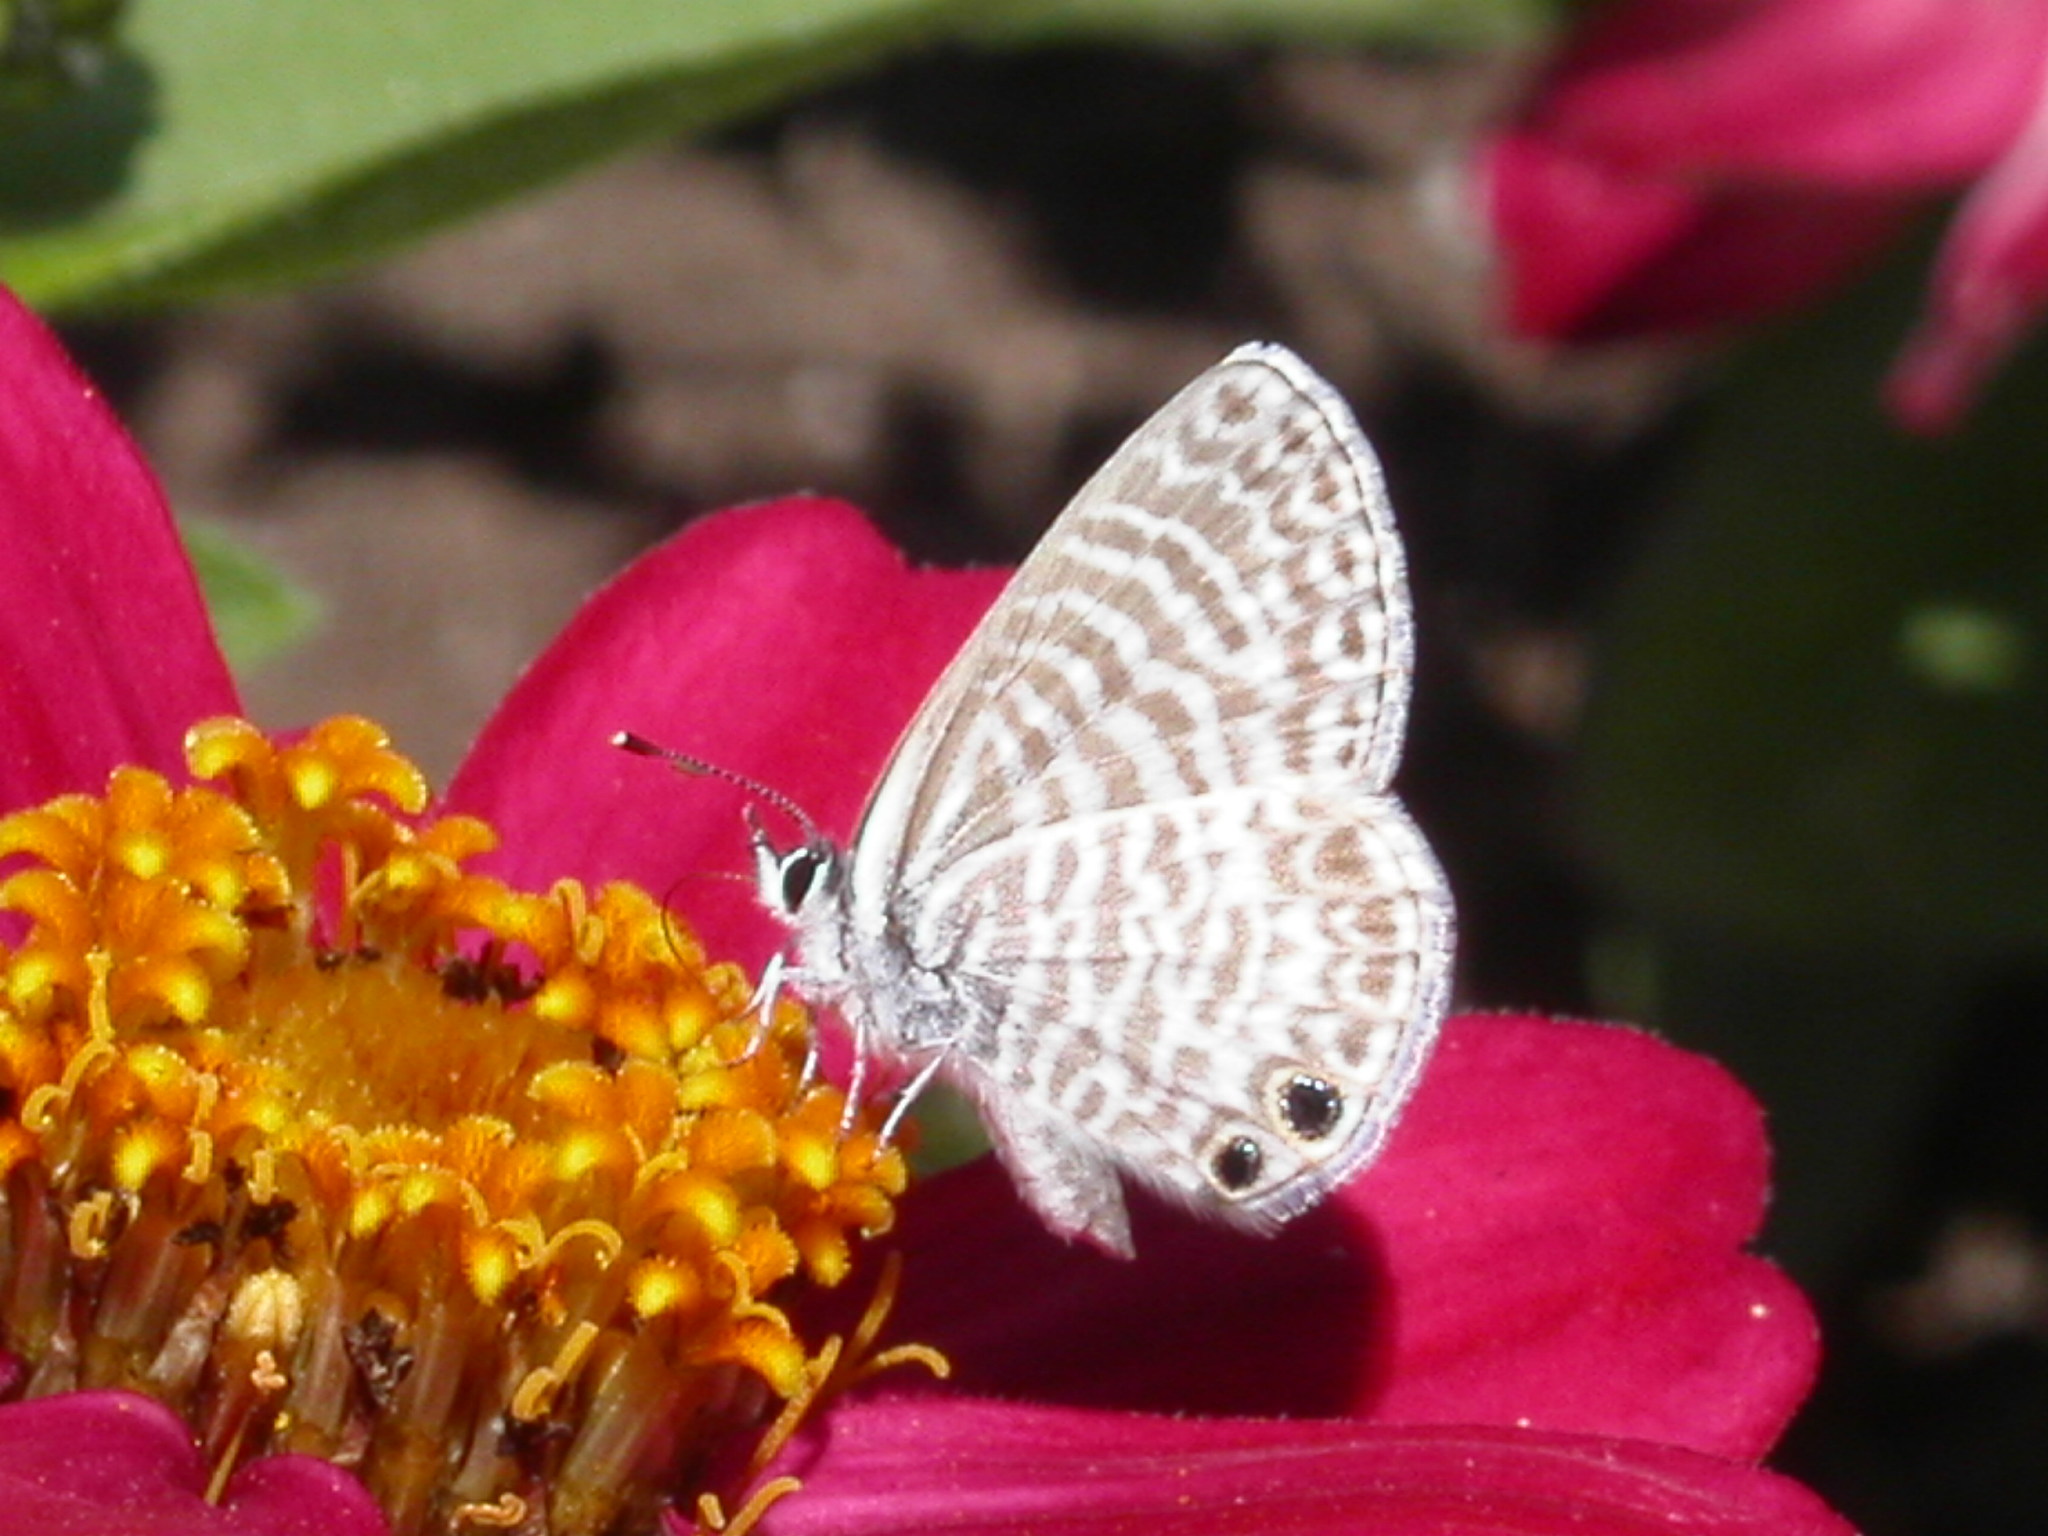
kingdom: Animalia
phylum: Arthropoda
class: Insecta
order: Lepidoptera
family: Lycaenidae
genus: Leptotes
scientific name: Leptotes marina
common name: Marine blue
